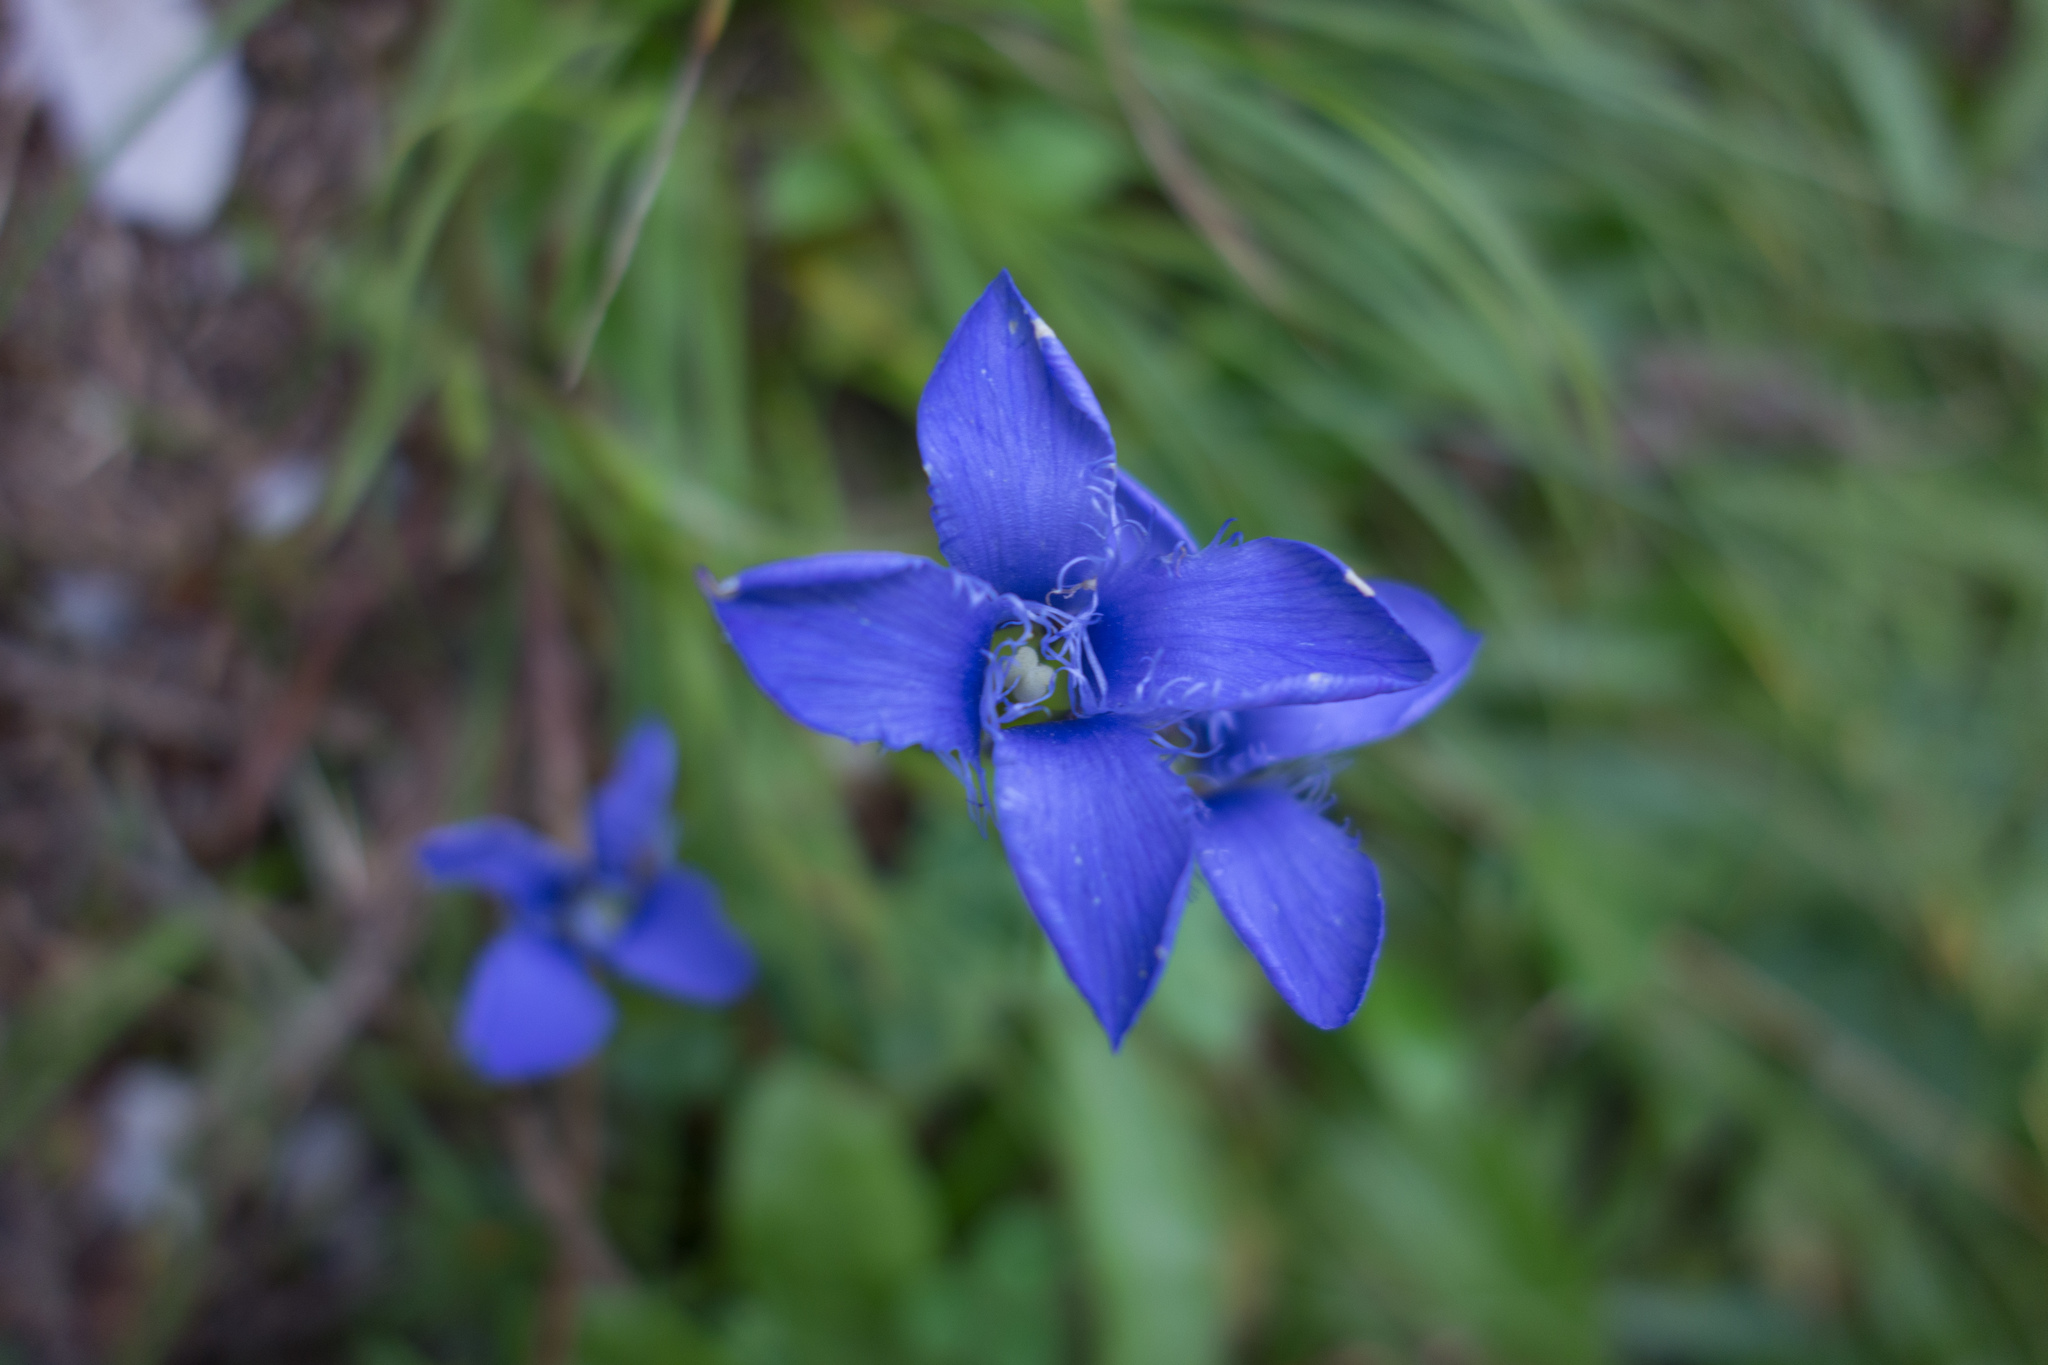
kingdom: Plantae
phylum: Tracheophyta
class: Magnoliopsida
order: Gentianales
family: Gentianaceae
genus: Gentianopsis
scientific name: Gentianopsis ciliata
